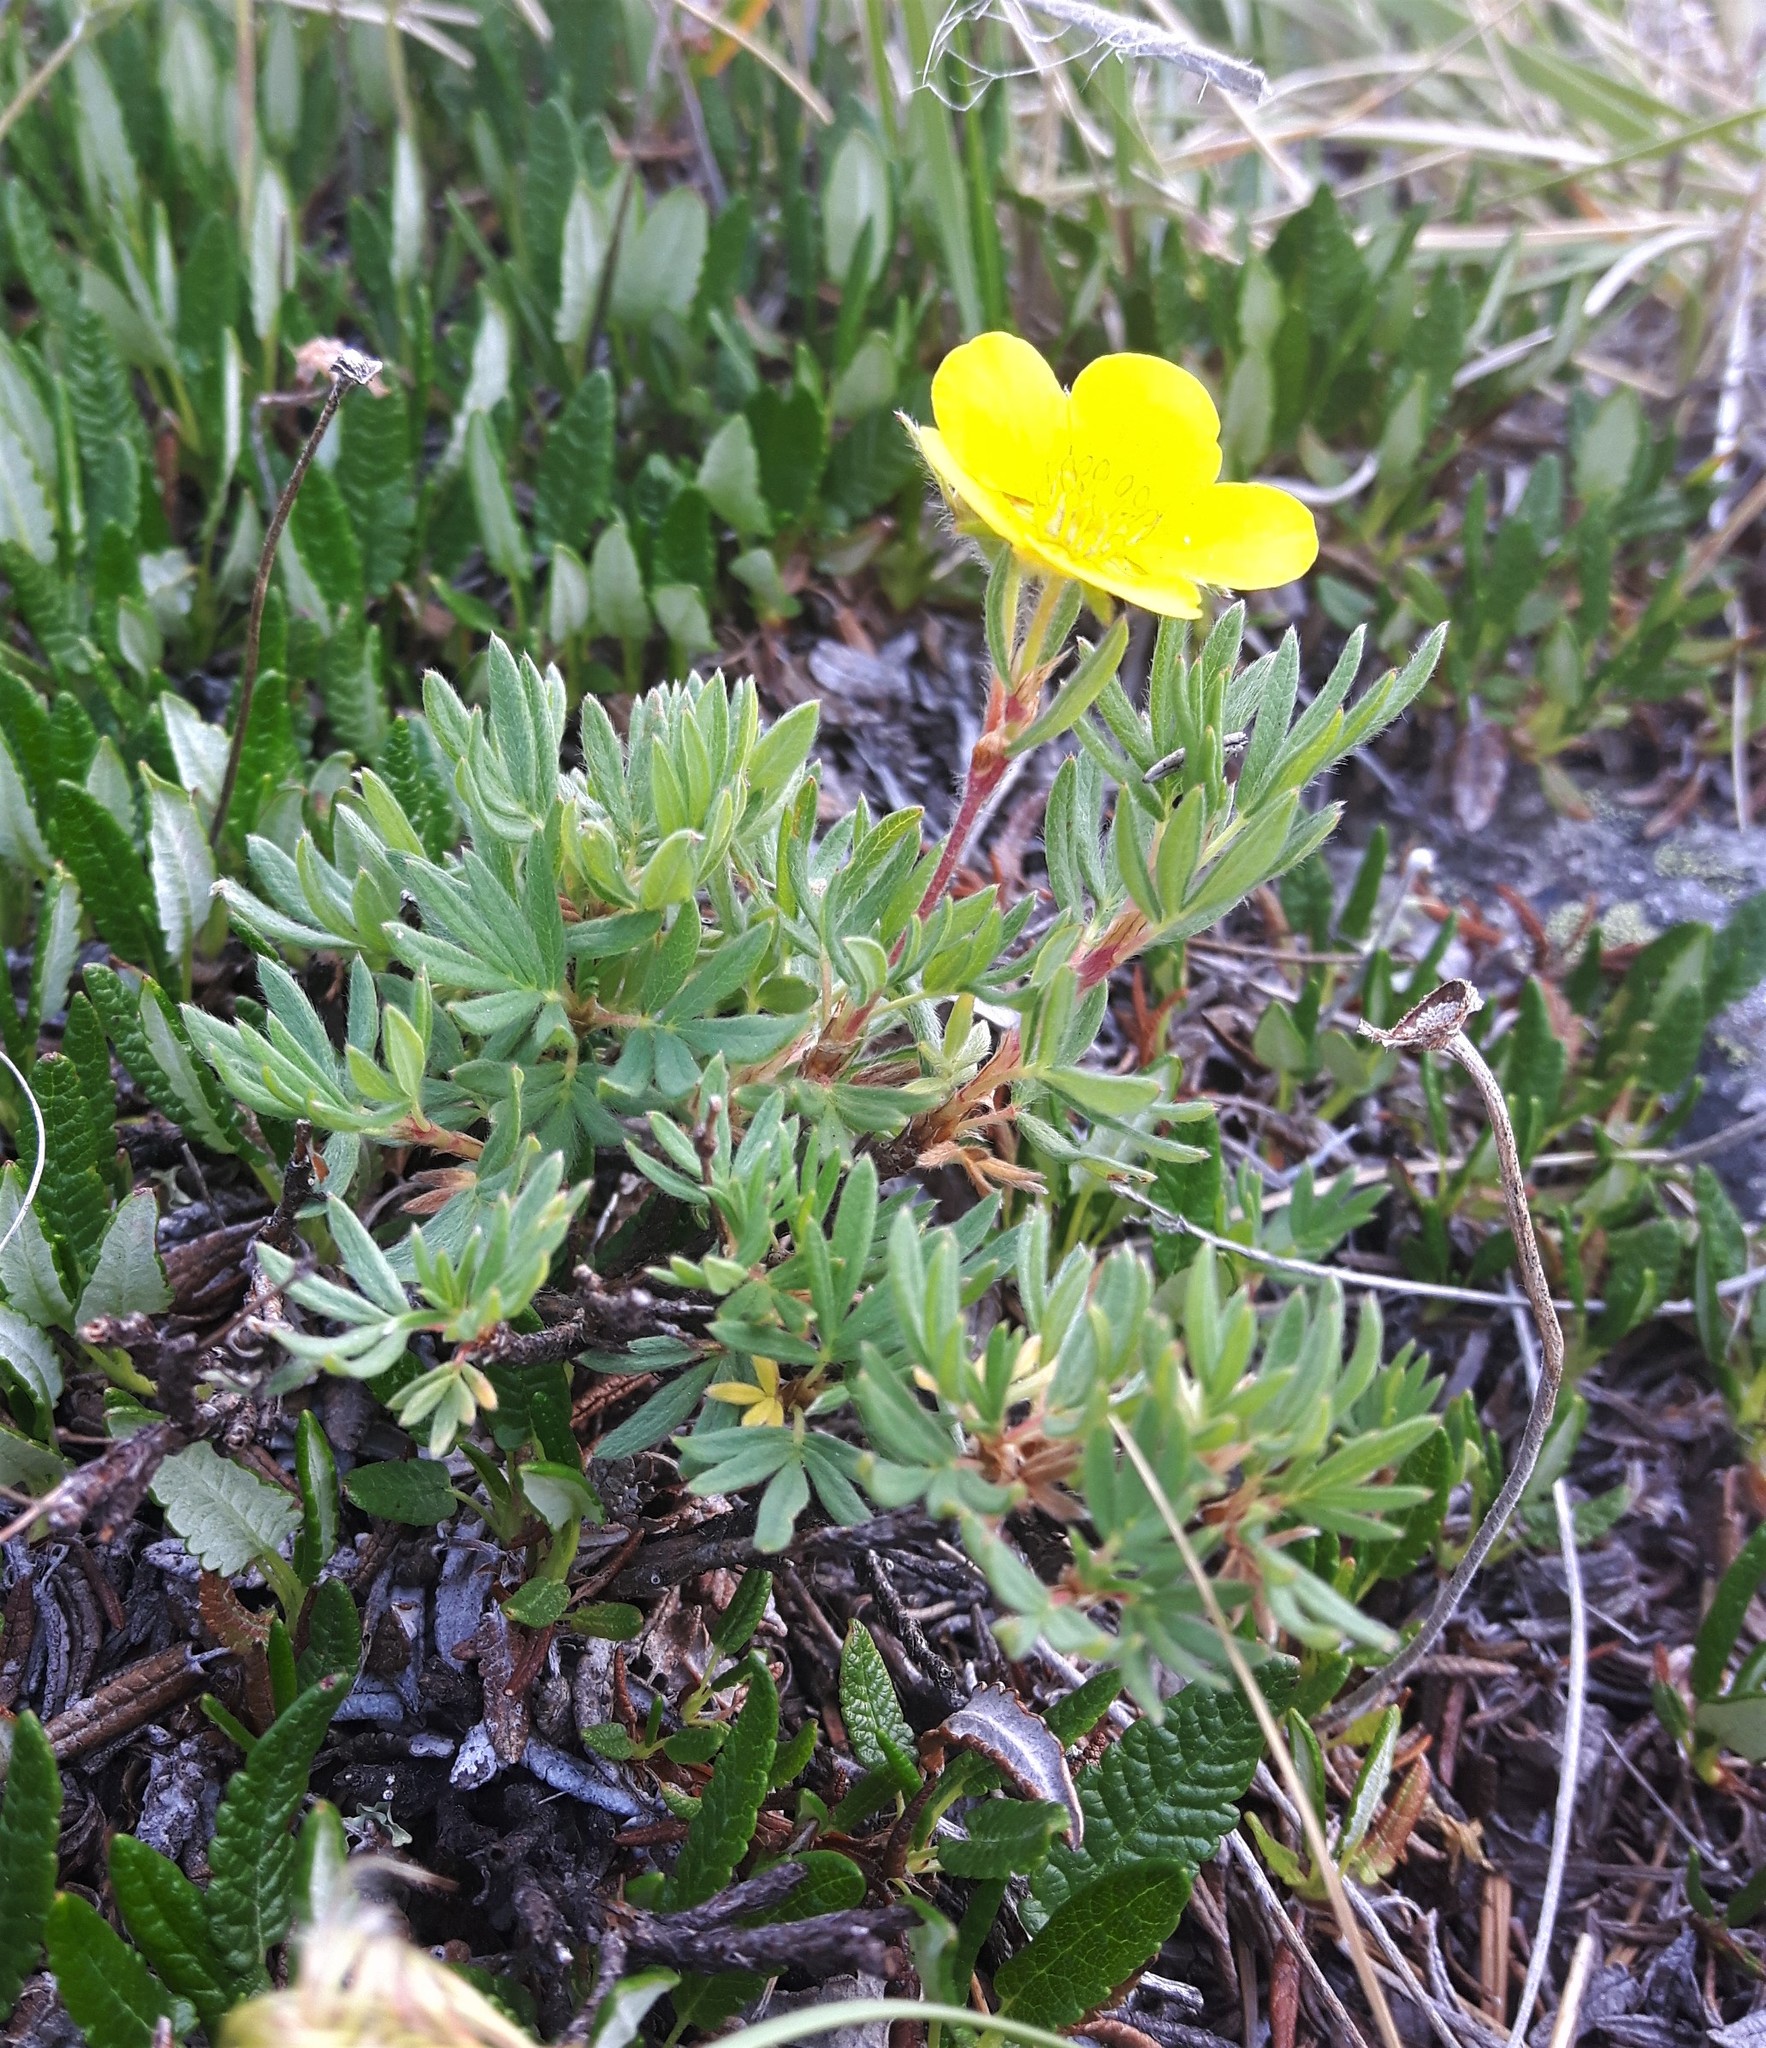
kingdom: Plantae
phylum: Tracheophyta
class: Magnoliopsida
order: Rosales
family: Rosaceae
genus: Dasiphora
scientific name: Dasiphora fruticosa
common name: Shrubby cinquefoil
